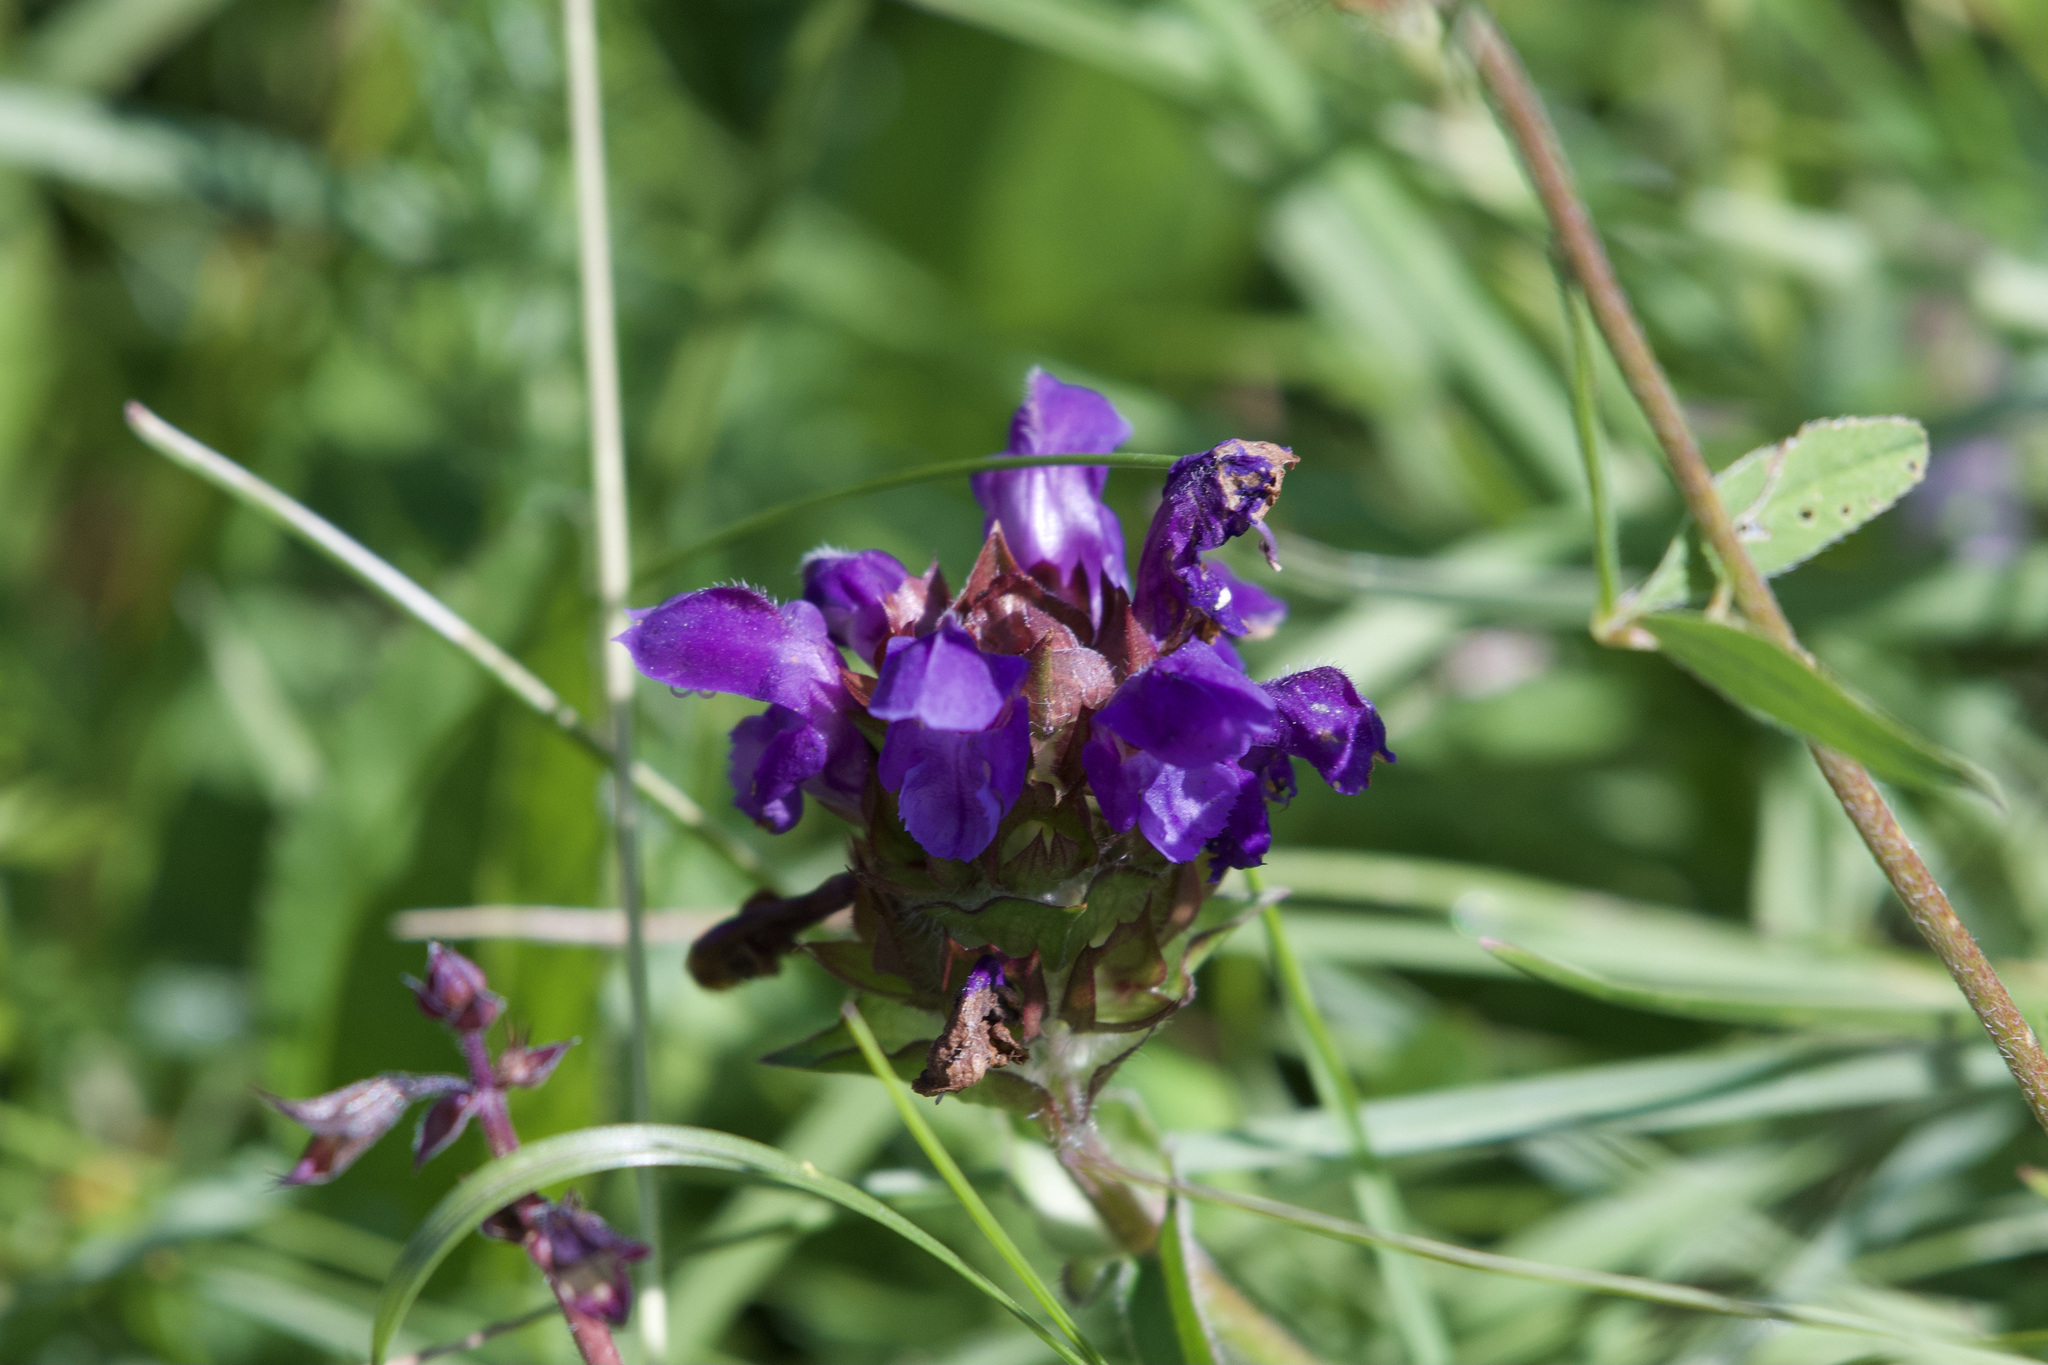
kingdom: Plantae
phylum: Tracheophyta
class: Magnoliopsida
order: Lamiales
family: Lamiaceae
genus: Prunella
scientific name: Prunella grandiflora
